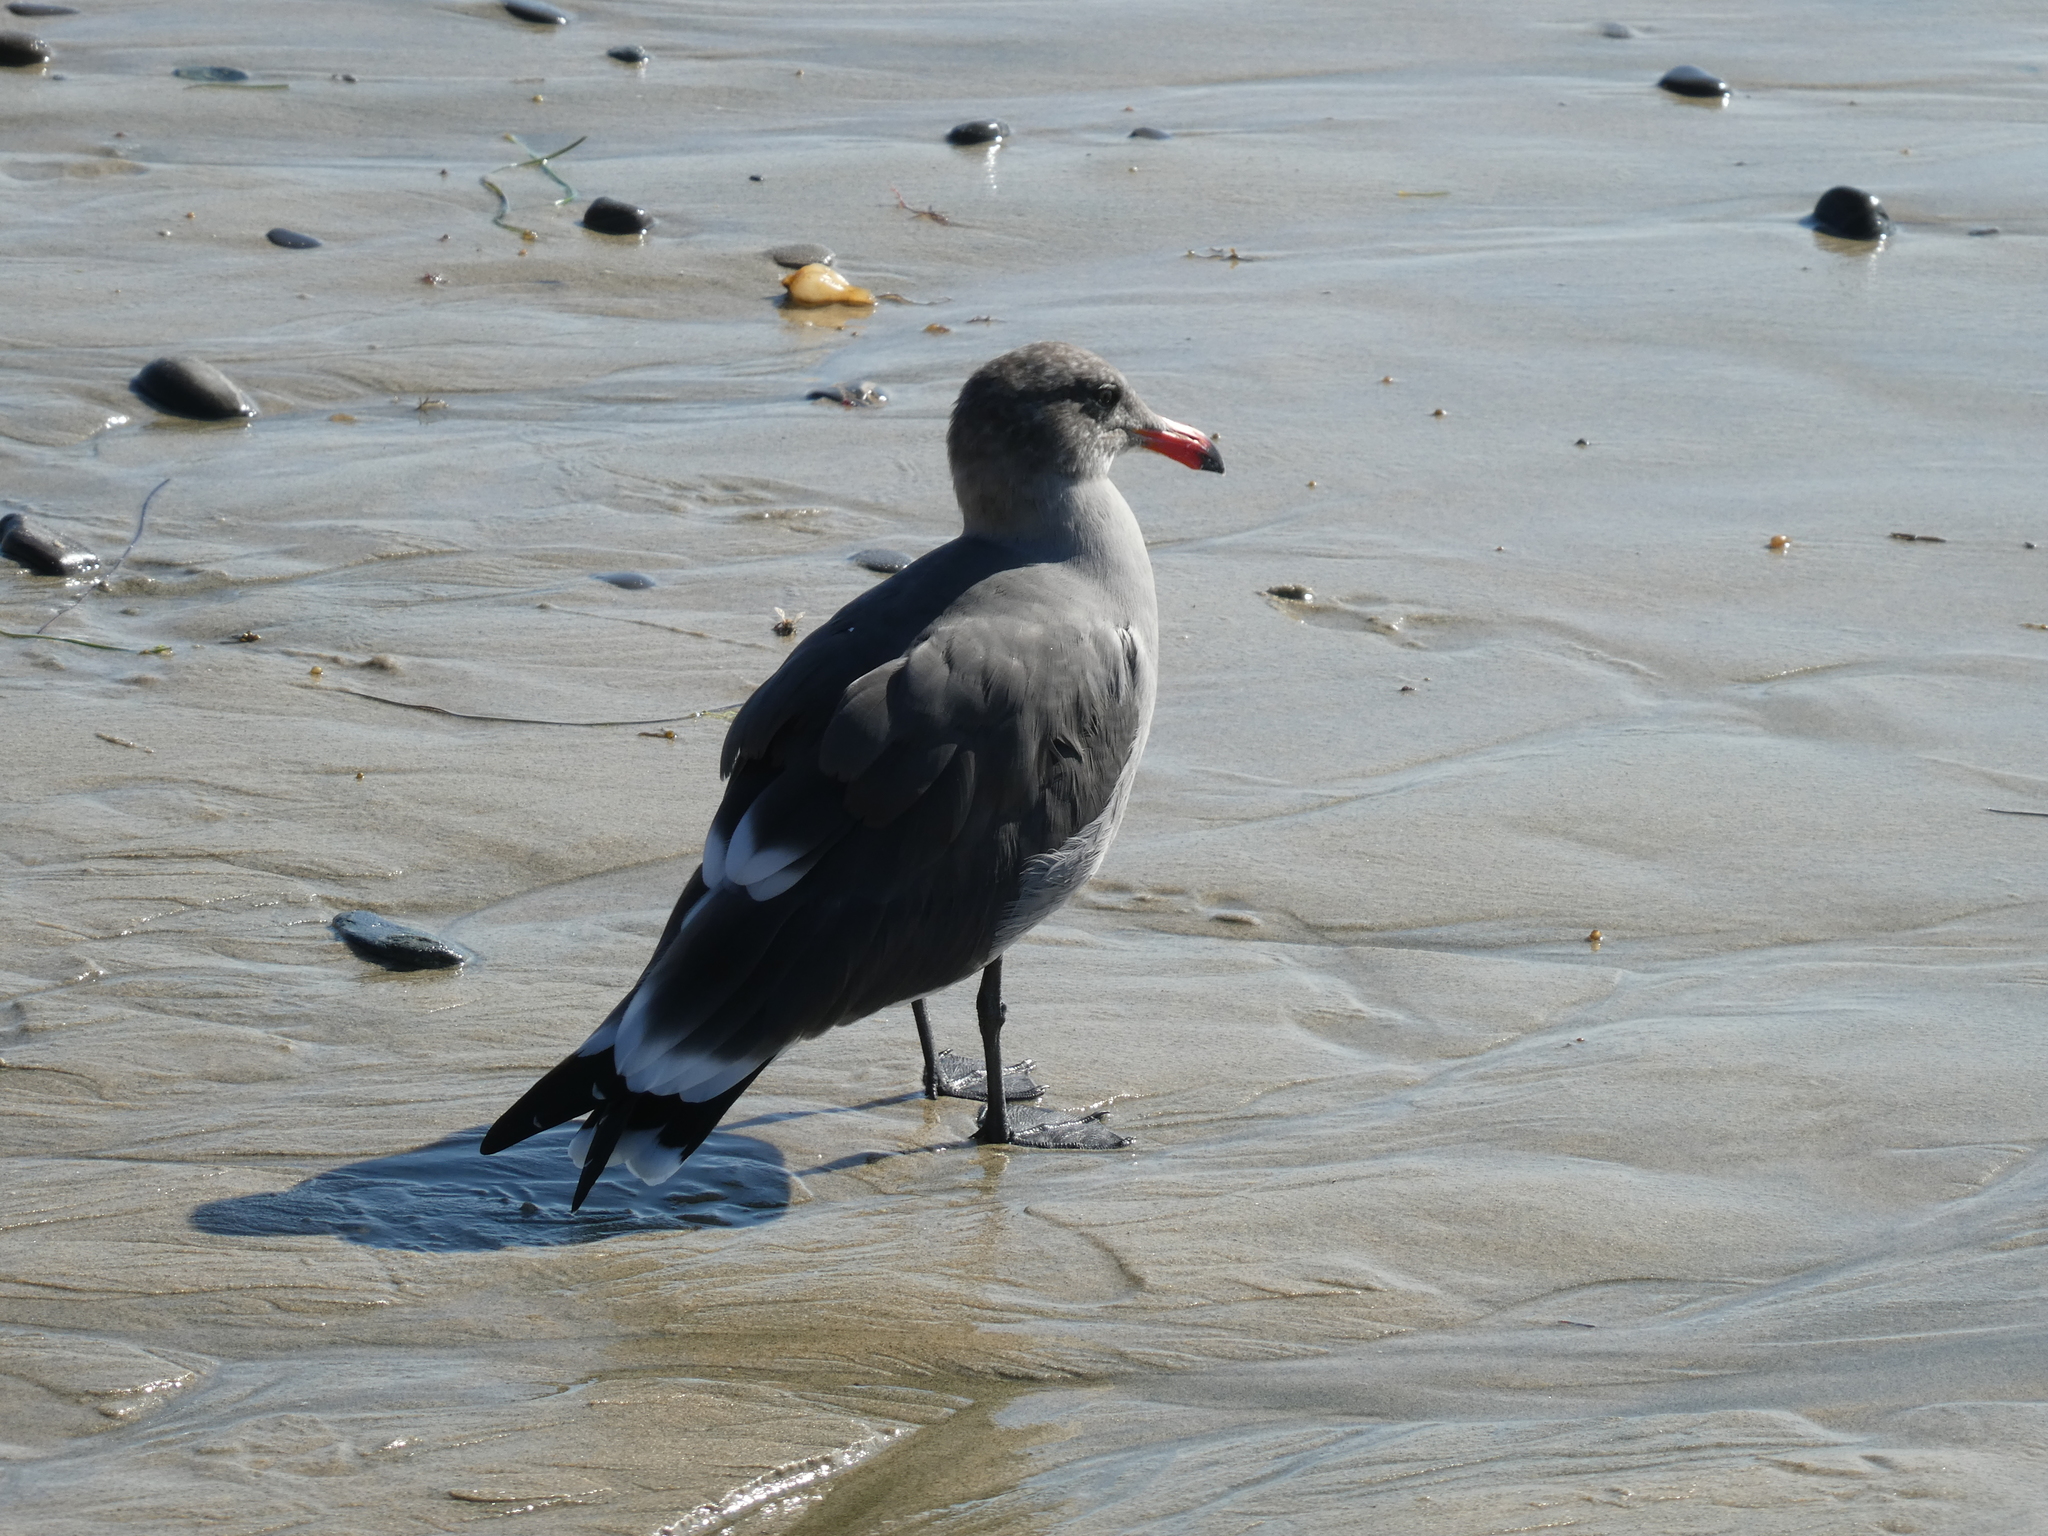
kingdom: Animalia
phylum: Chordata
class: Aves
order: Charadriiformes
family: Laridae
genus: Larus
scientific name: Larus heermanni
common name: Heermann's gull
